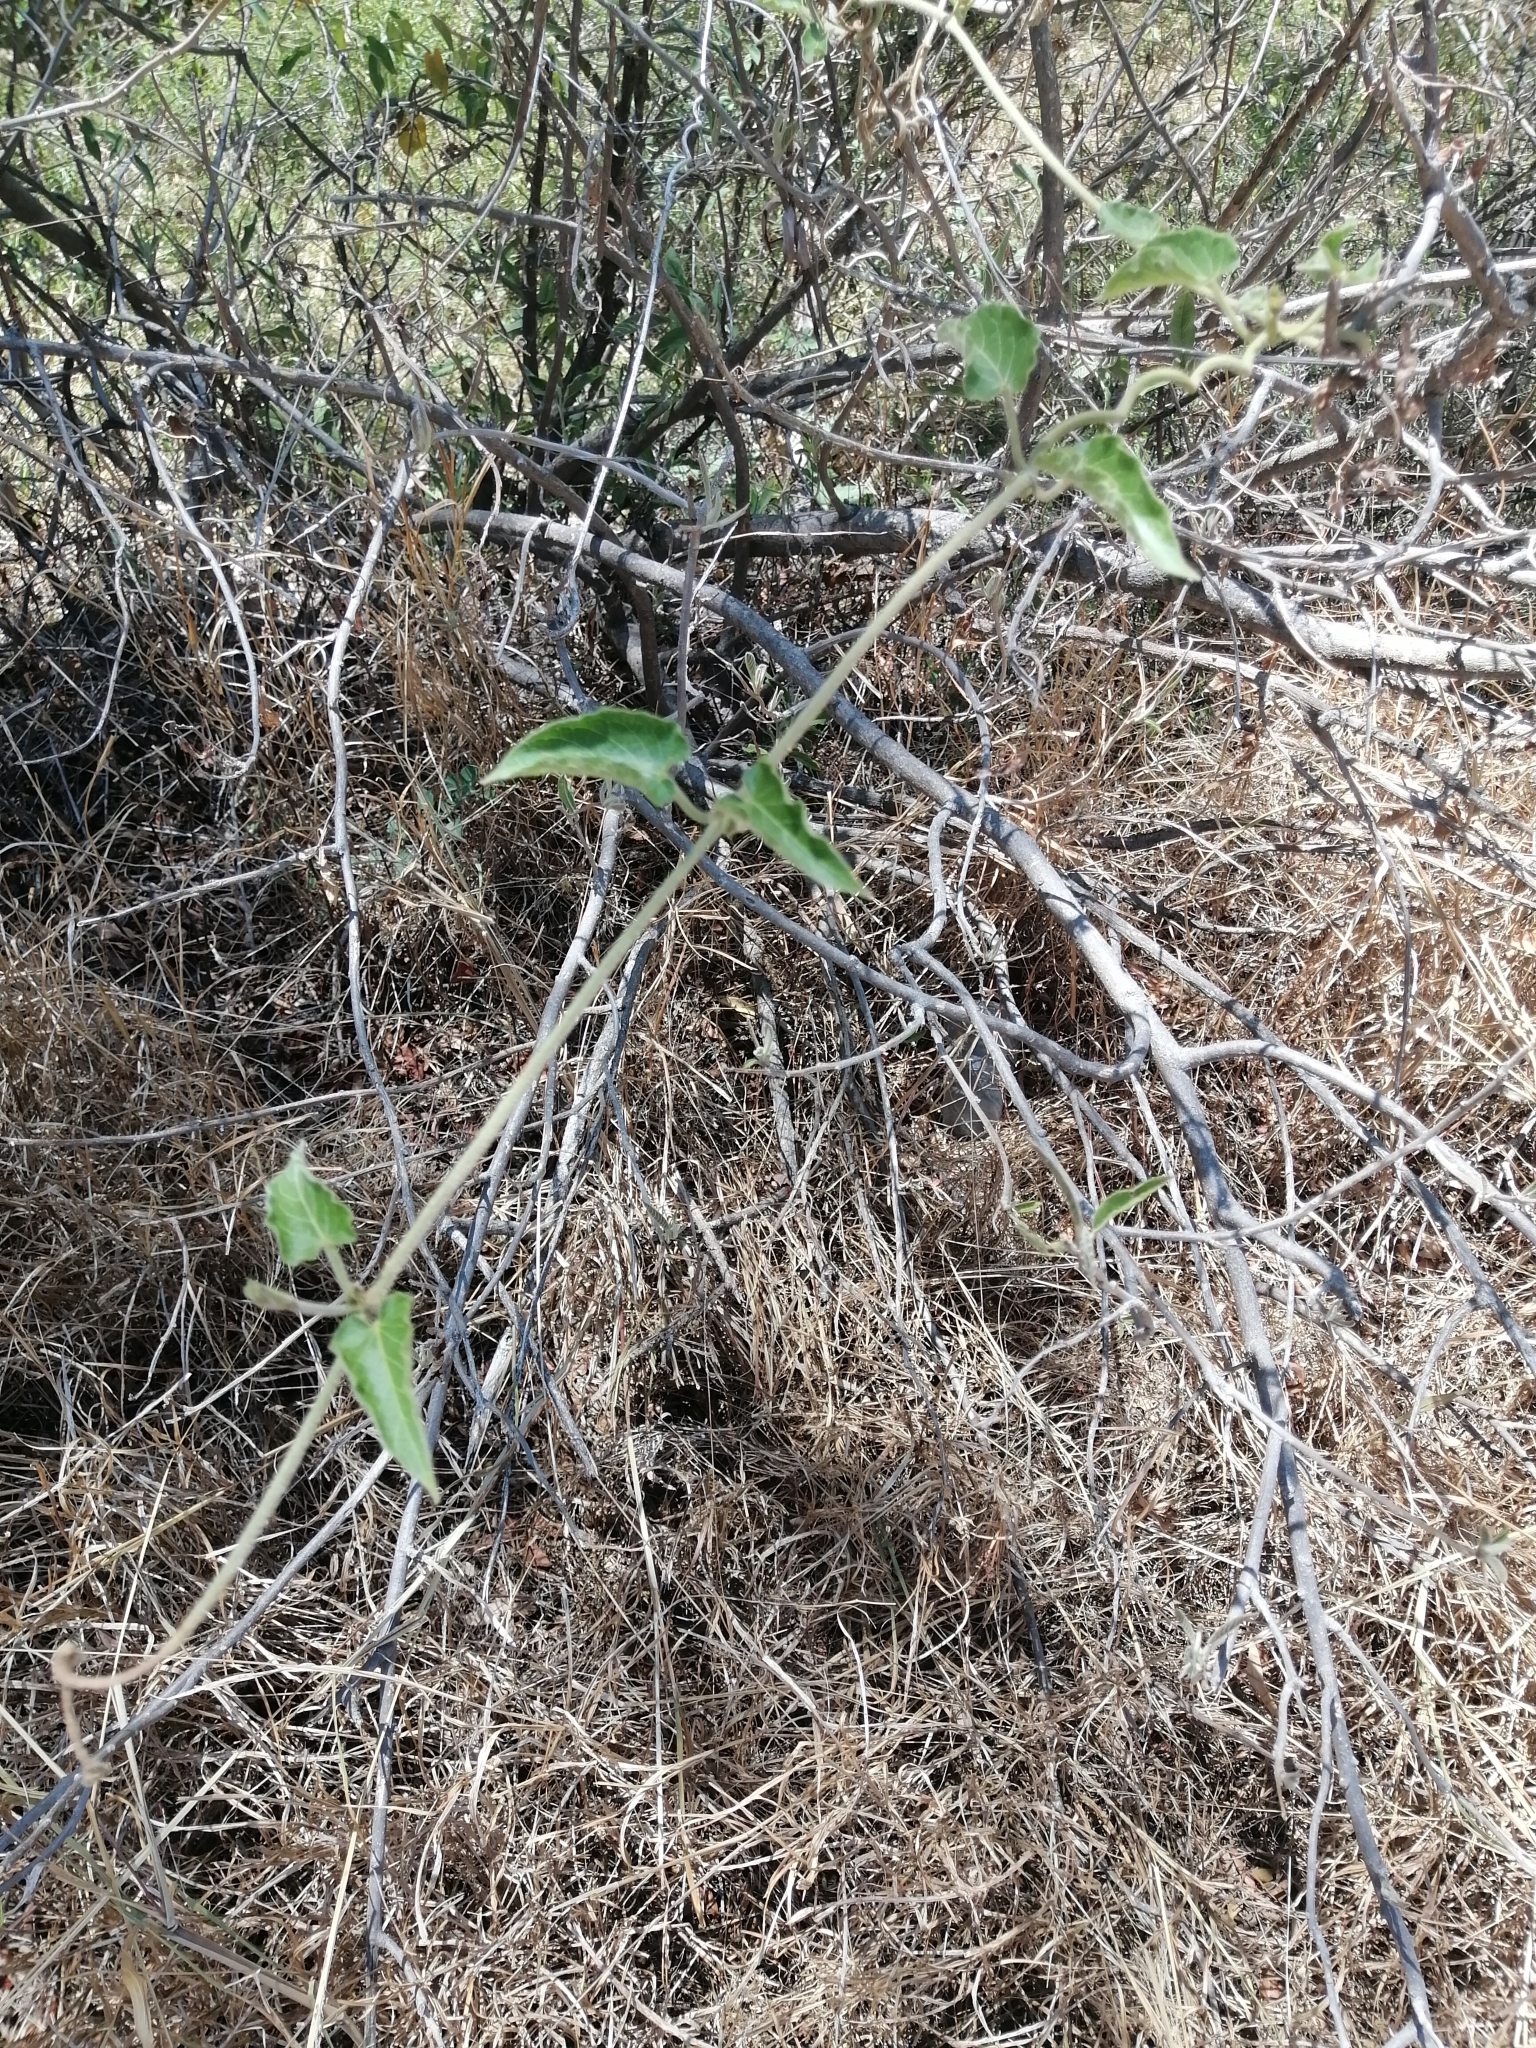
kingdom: Plantae
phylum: Tracheophyta
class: Magnoliopsida
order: Gentianales
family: Apocynaceae
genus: Gonolobus
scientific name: Gonolobus grandiflorus
